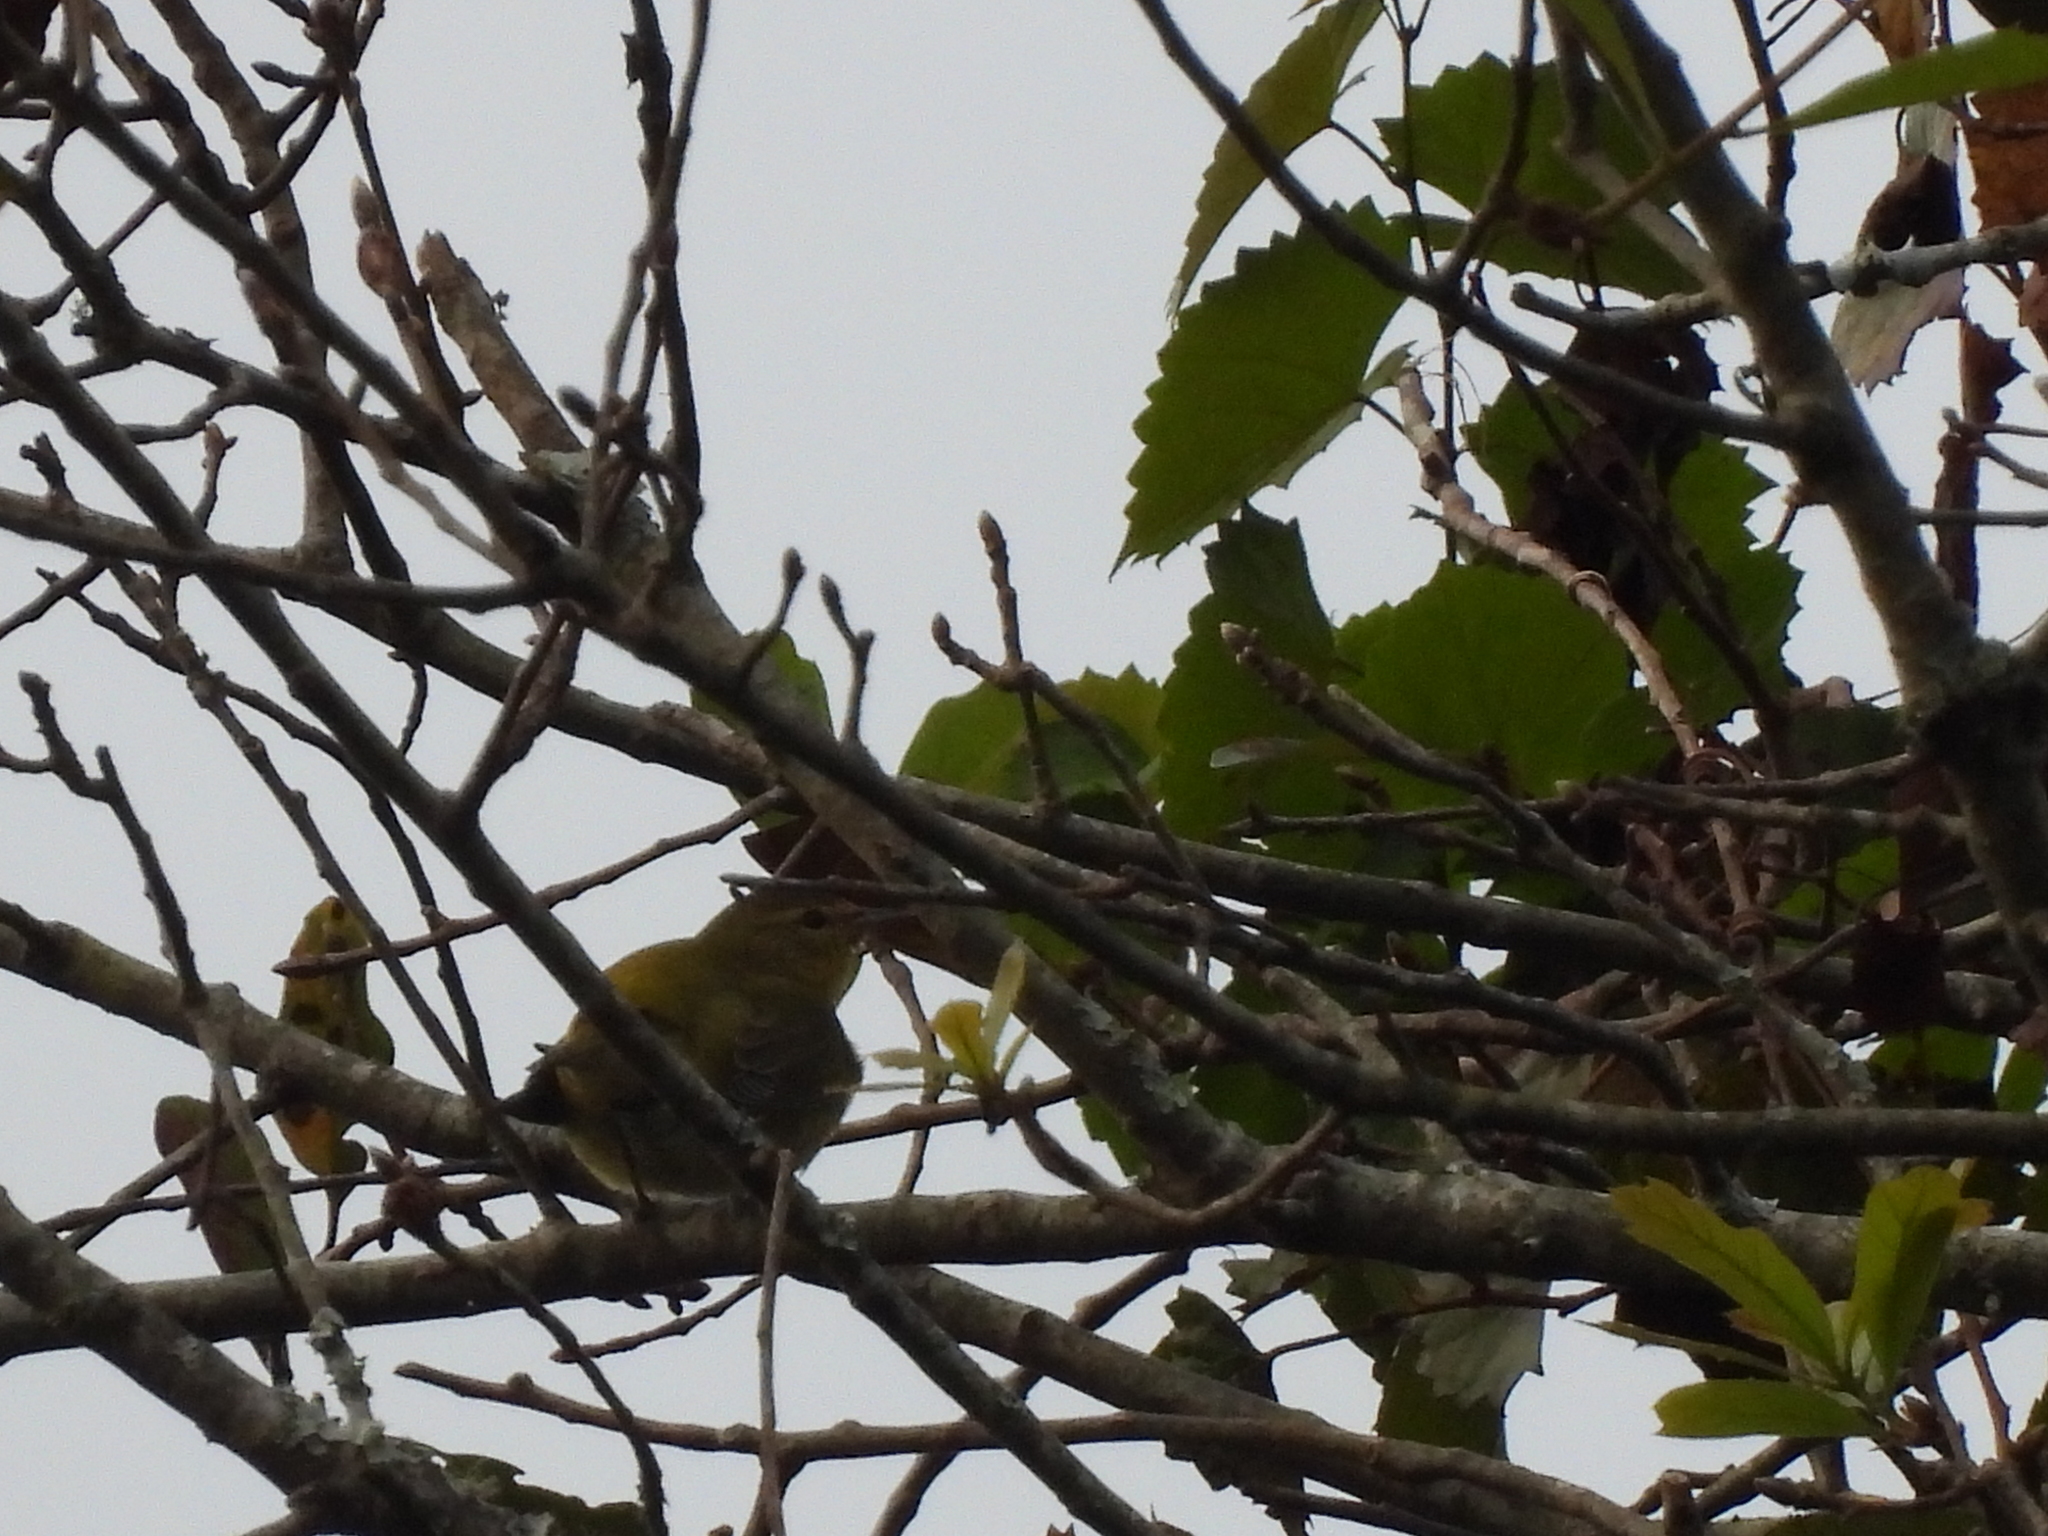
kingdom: Animalia
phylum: Chordata
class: Aves
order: Passeriformes
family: Parulidae
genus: Leiothlypis
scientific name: Leiothlypis peregrina
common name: Tennessee warbler
